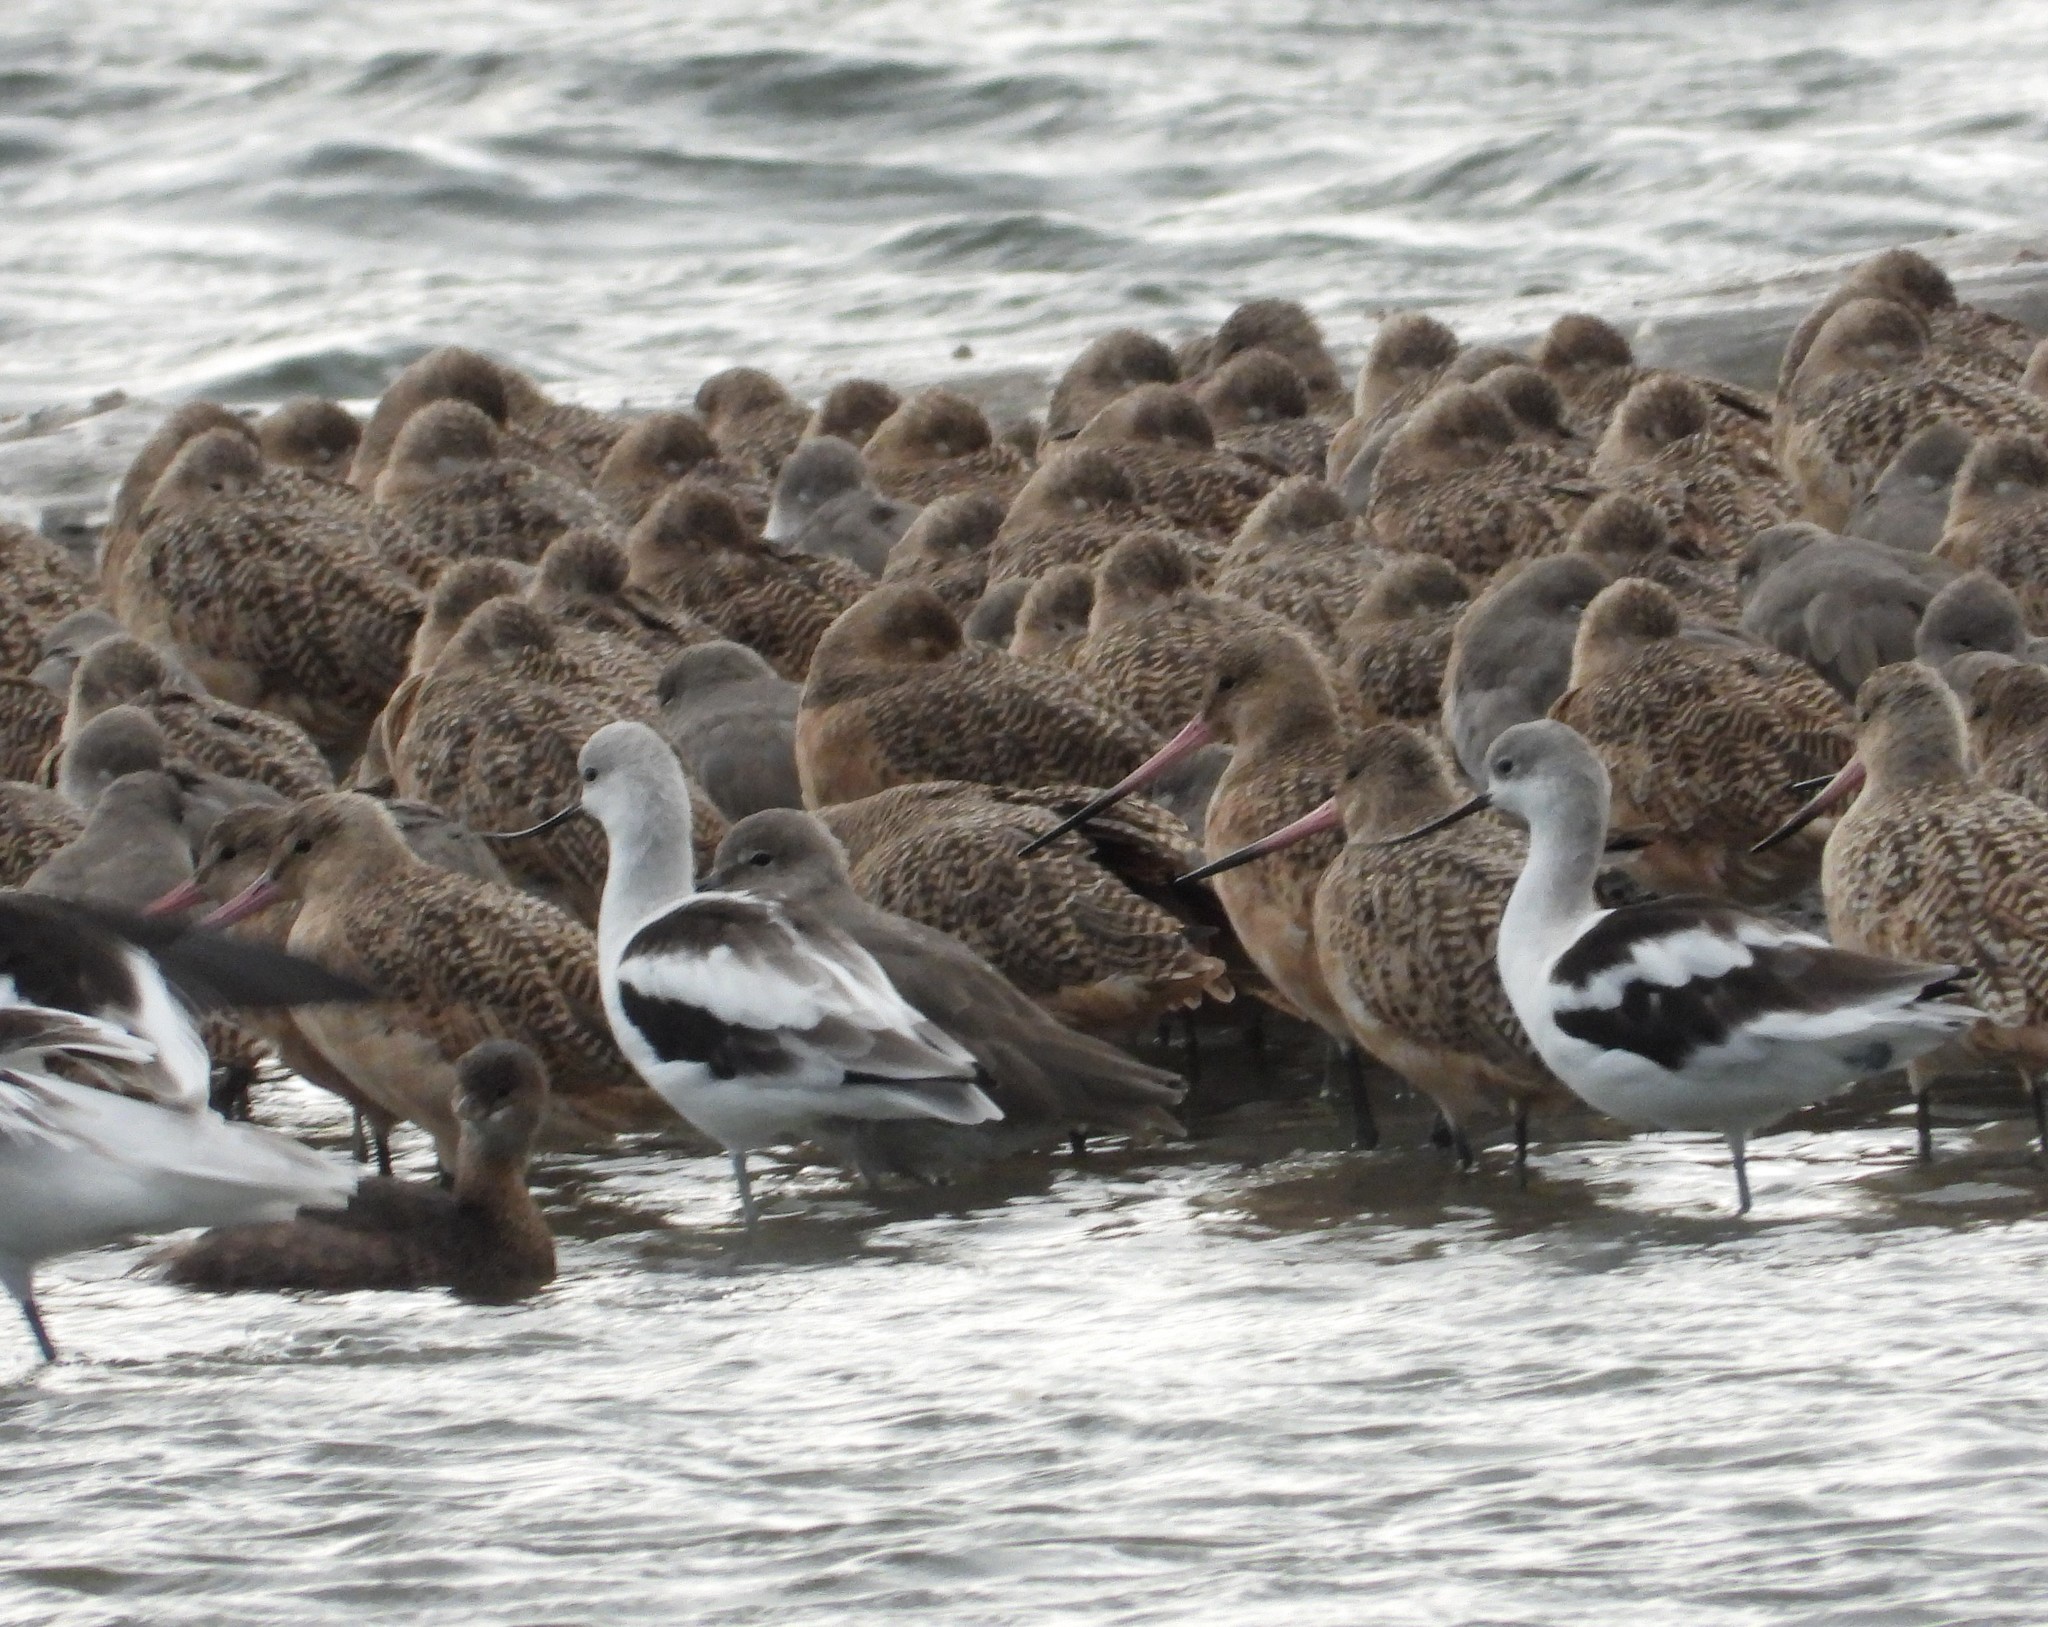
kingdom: Animalia
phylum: Chordata
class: Aves
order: Charadriiformes
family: Recurvirostridae
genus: Recurvirostra
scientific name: Recurvirostra americana
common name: American avocet
